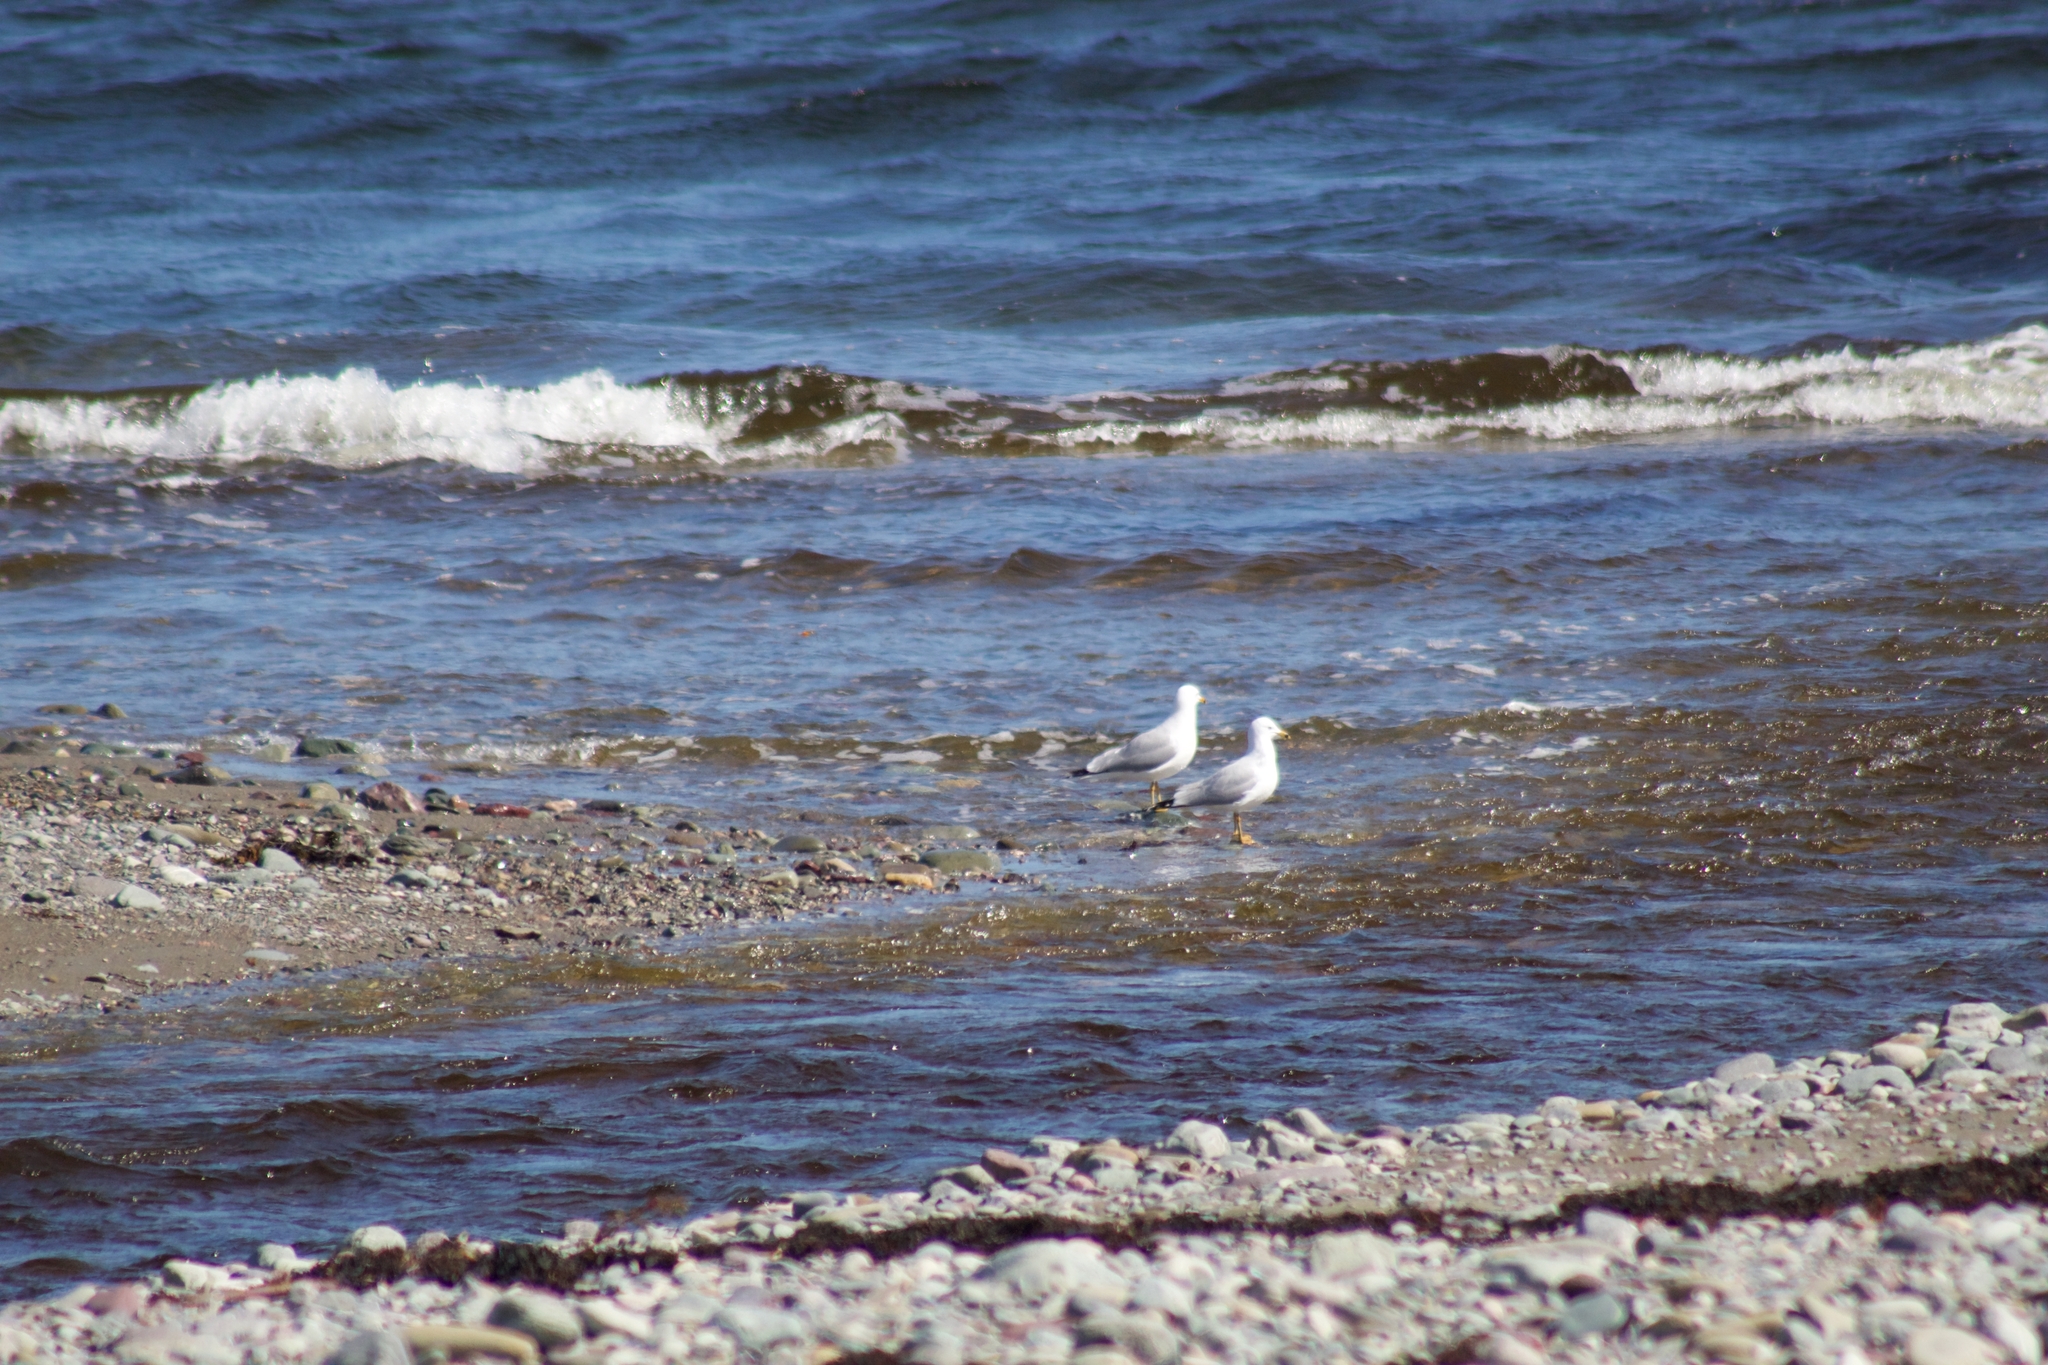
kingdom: Animalia
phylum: Chordata
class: Aves
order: Charadriiformes
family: Laridae
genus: Larus
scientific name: Larus delawarensis
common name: Ring-billed gull
